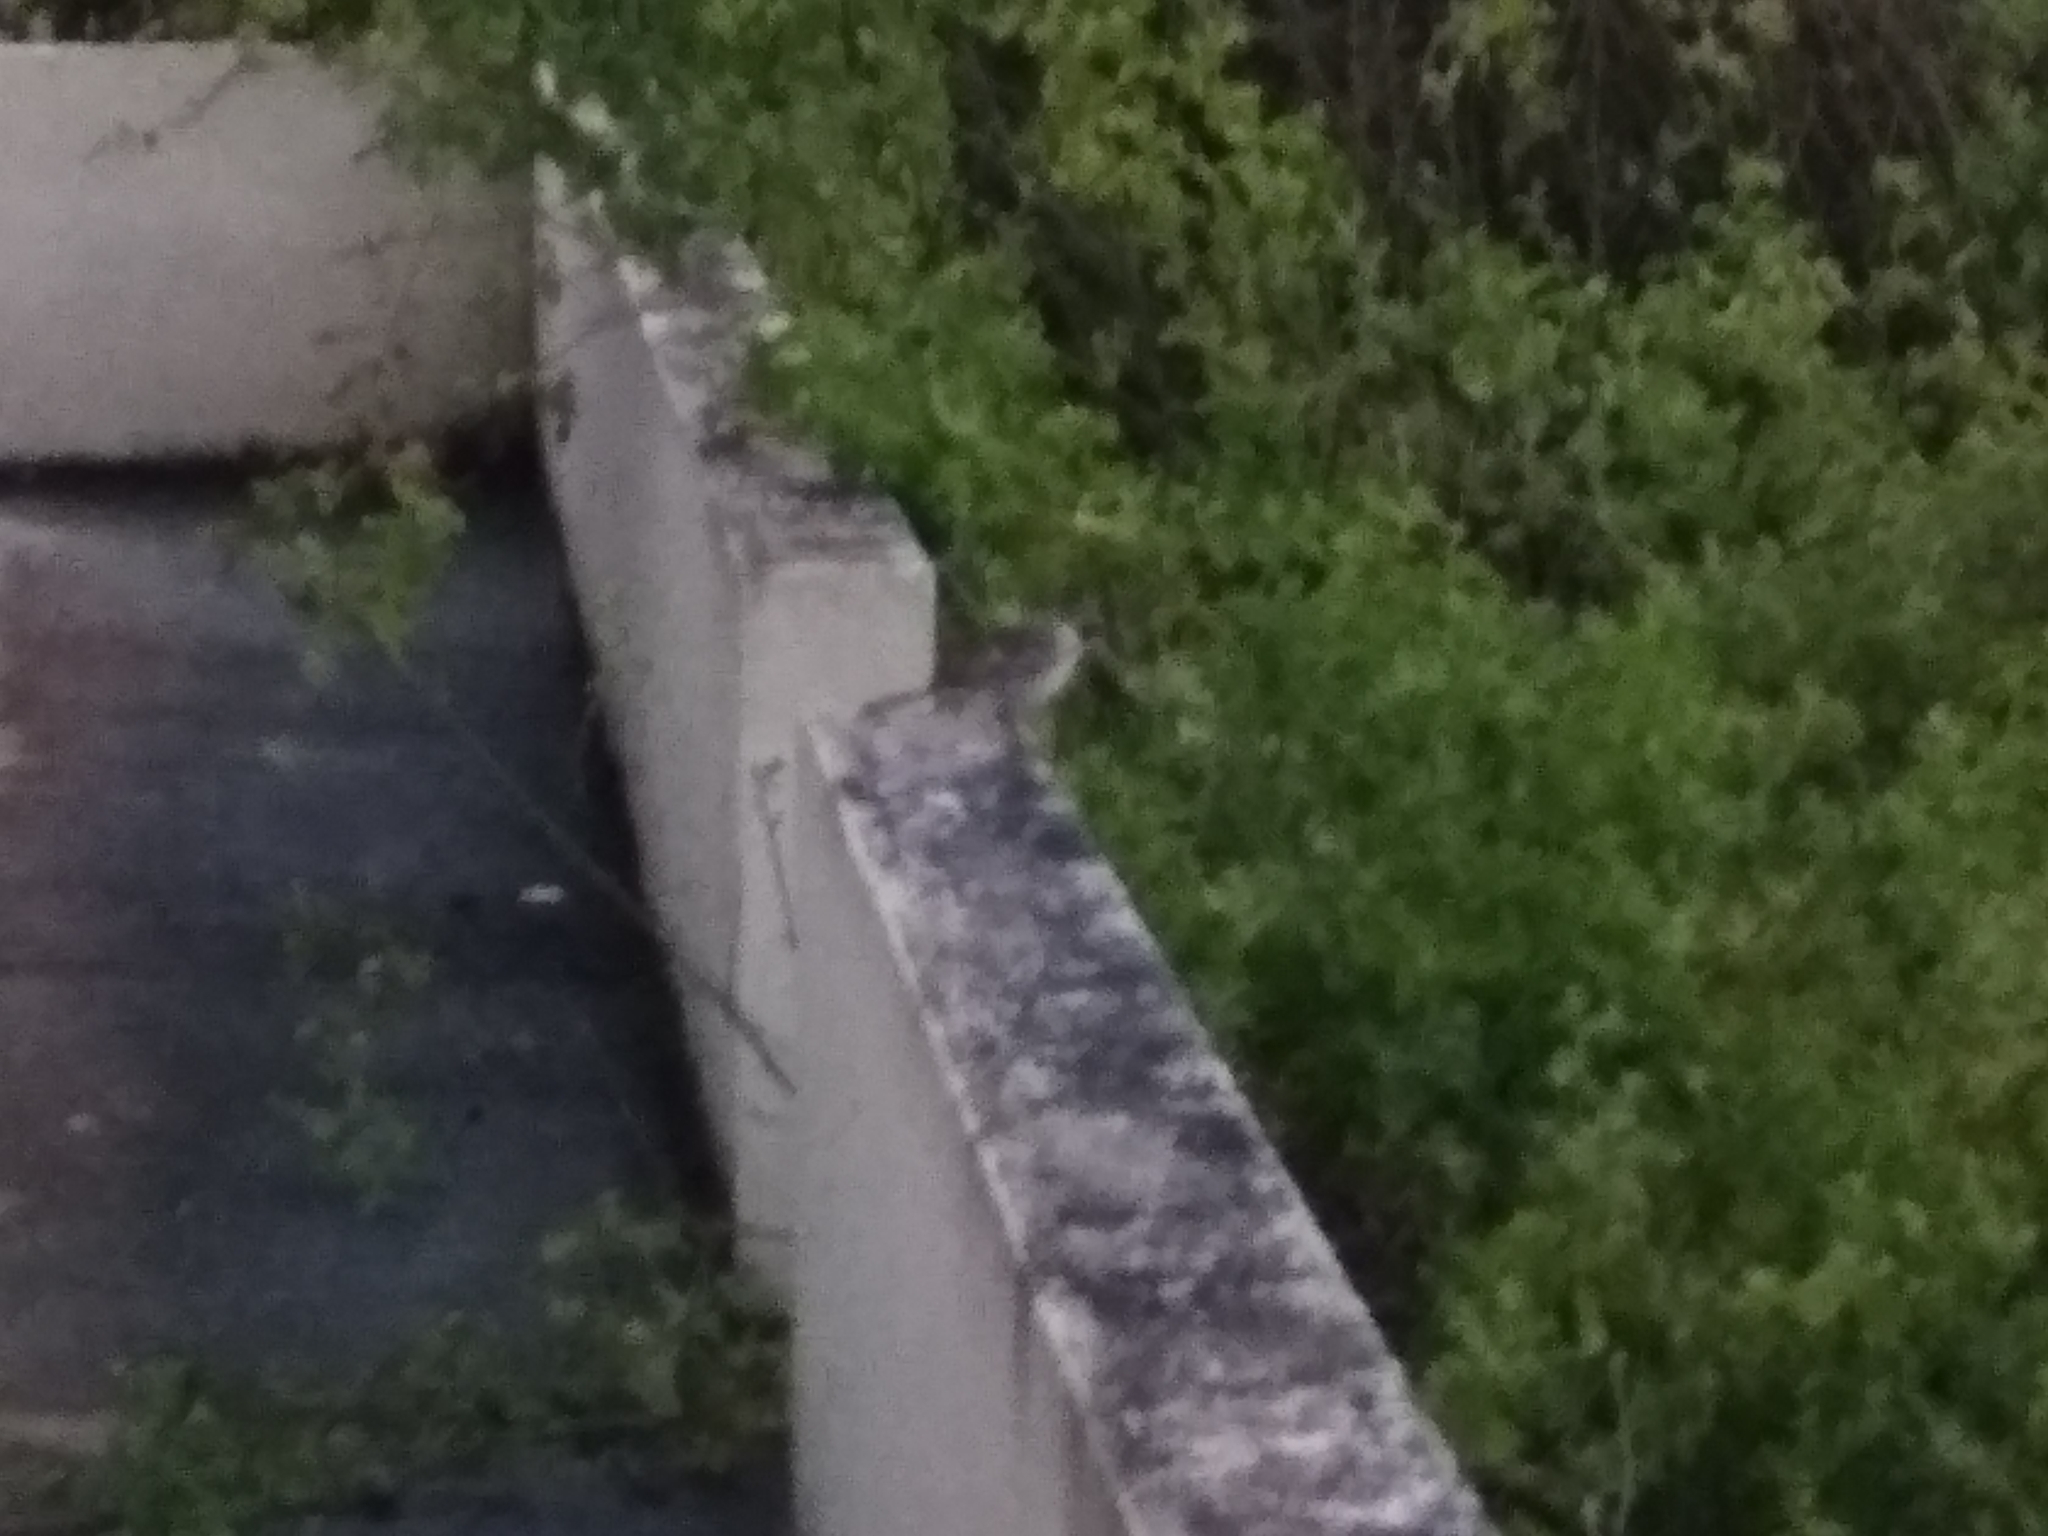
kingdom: Animalia
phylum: Chordata
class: Aves
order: Passeriformes
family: Mimidae
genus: Mimus
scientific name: Mimus parvulus
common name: Galapagos mockingbird
